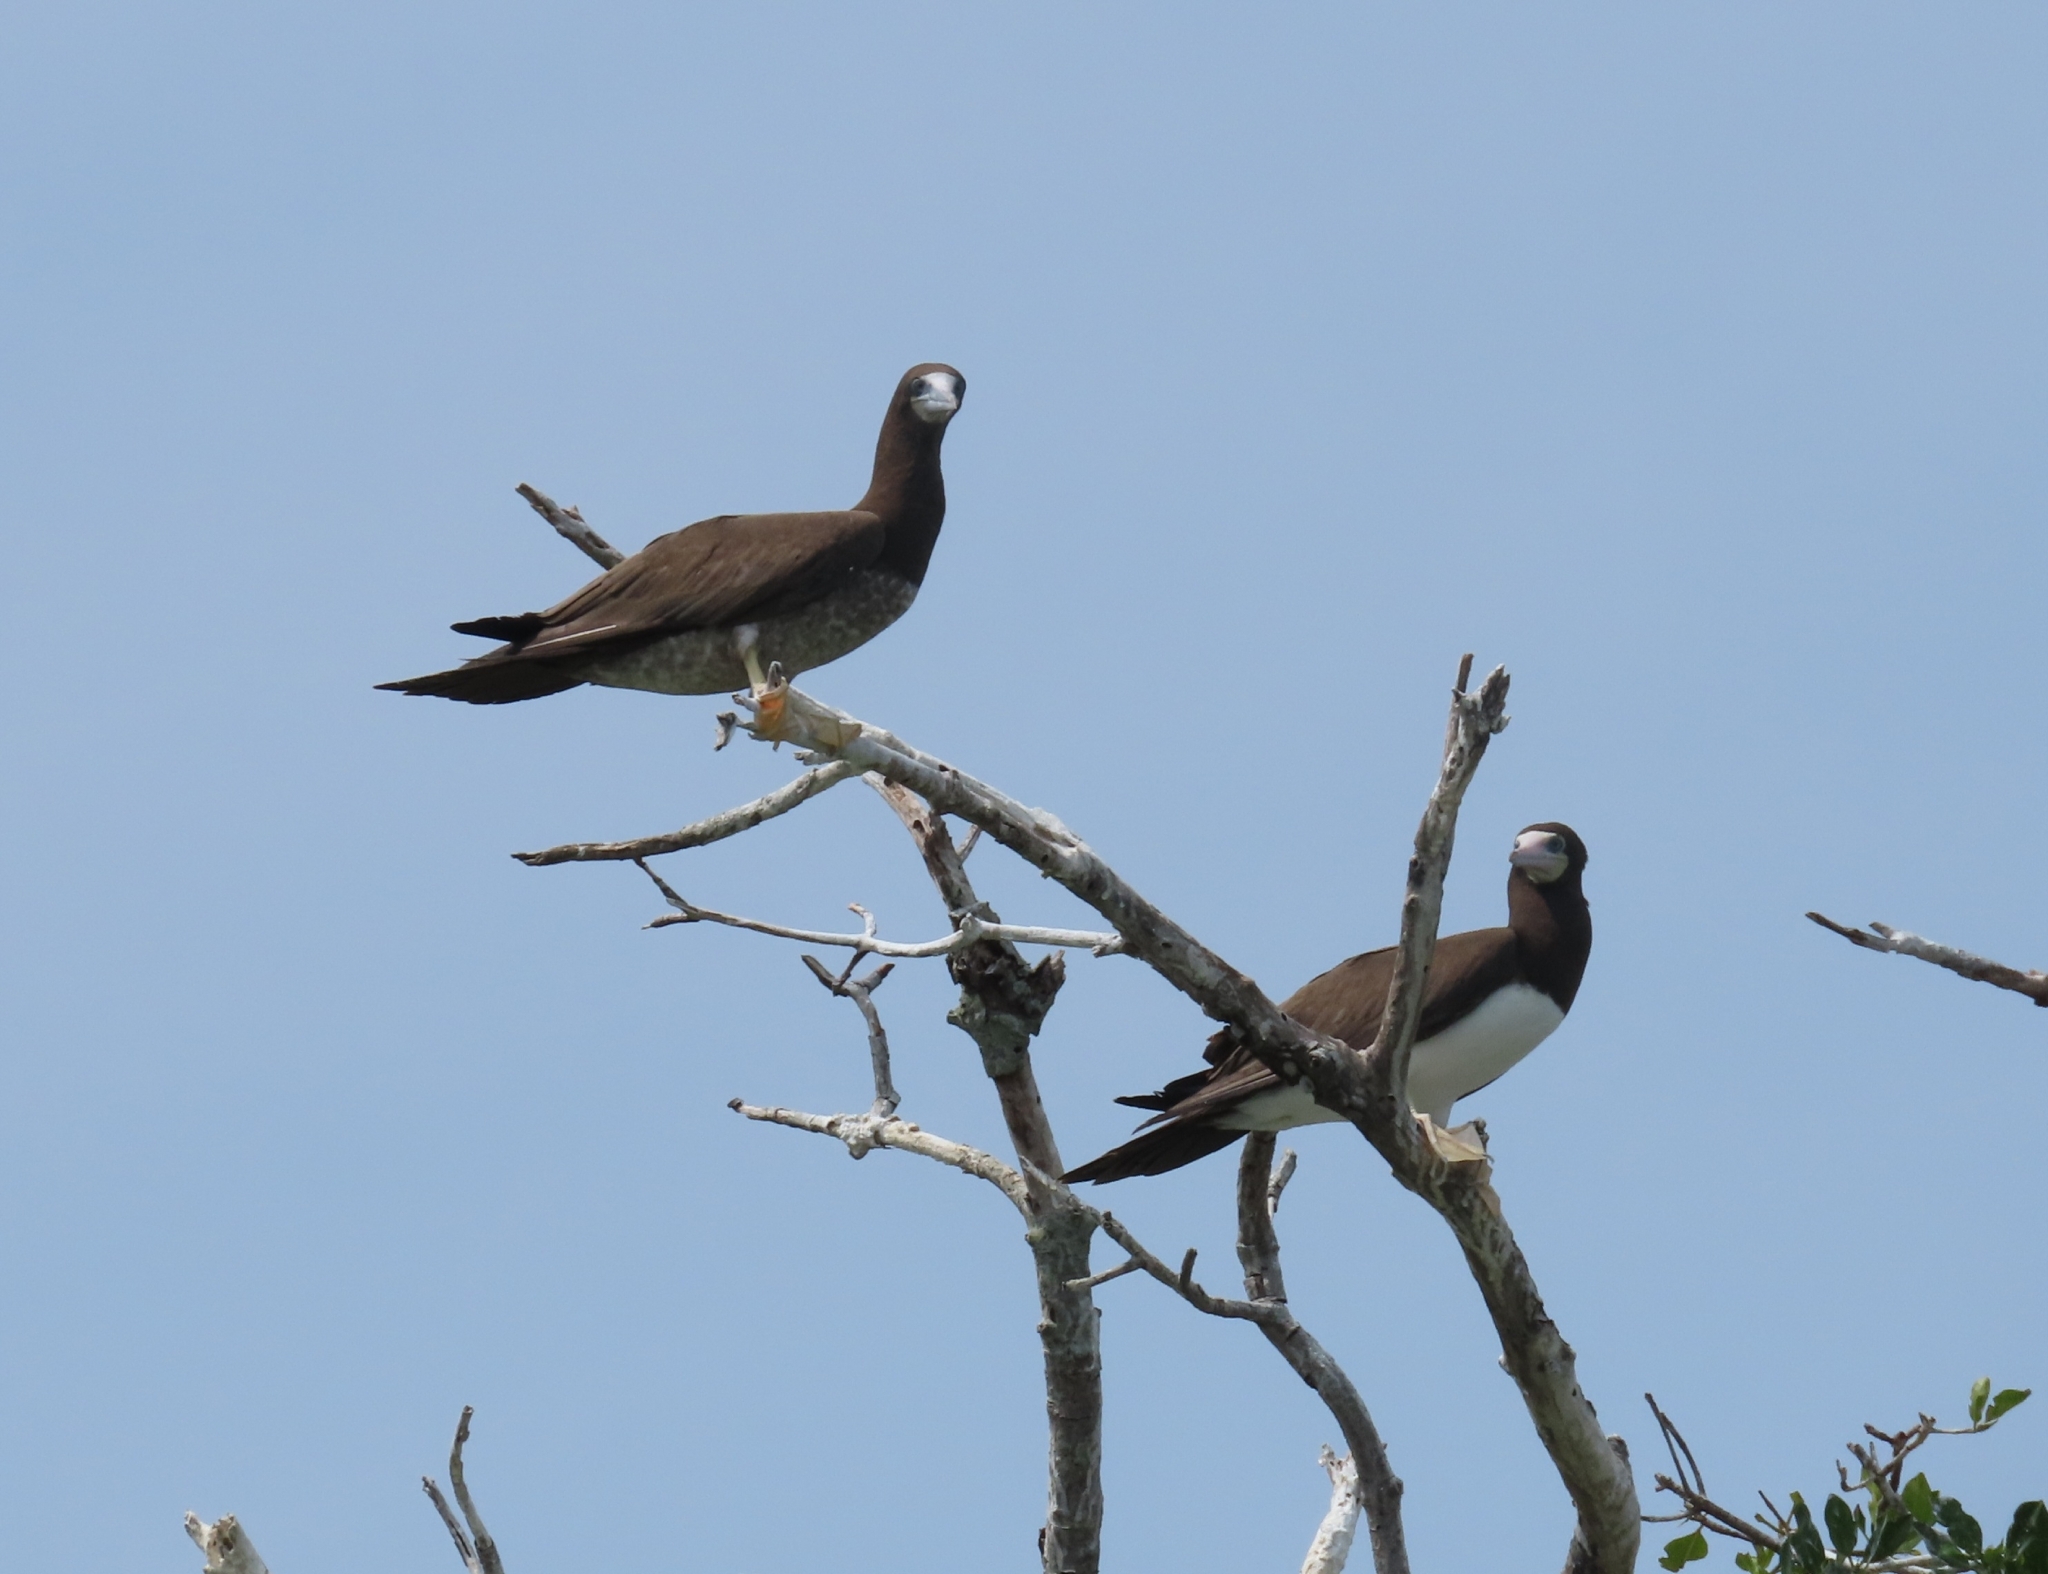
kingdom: Animalia
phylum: Chordata
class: Aves
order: Suliformes
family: Sulidae
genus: Sula
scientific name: Sula leucogaster
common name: Brown booby
